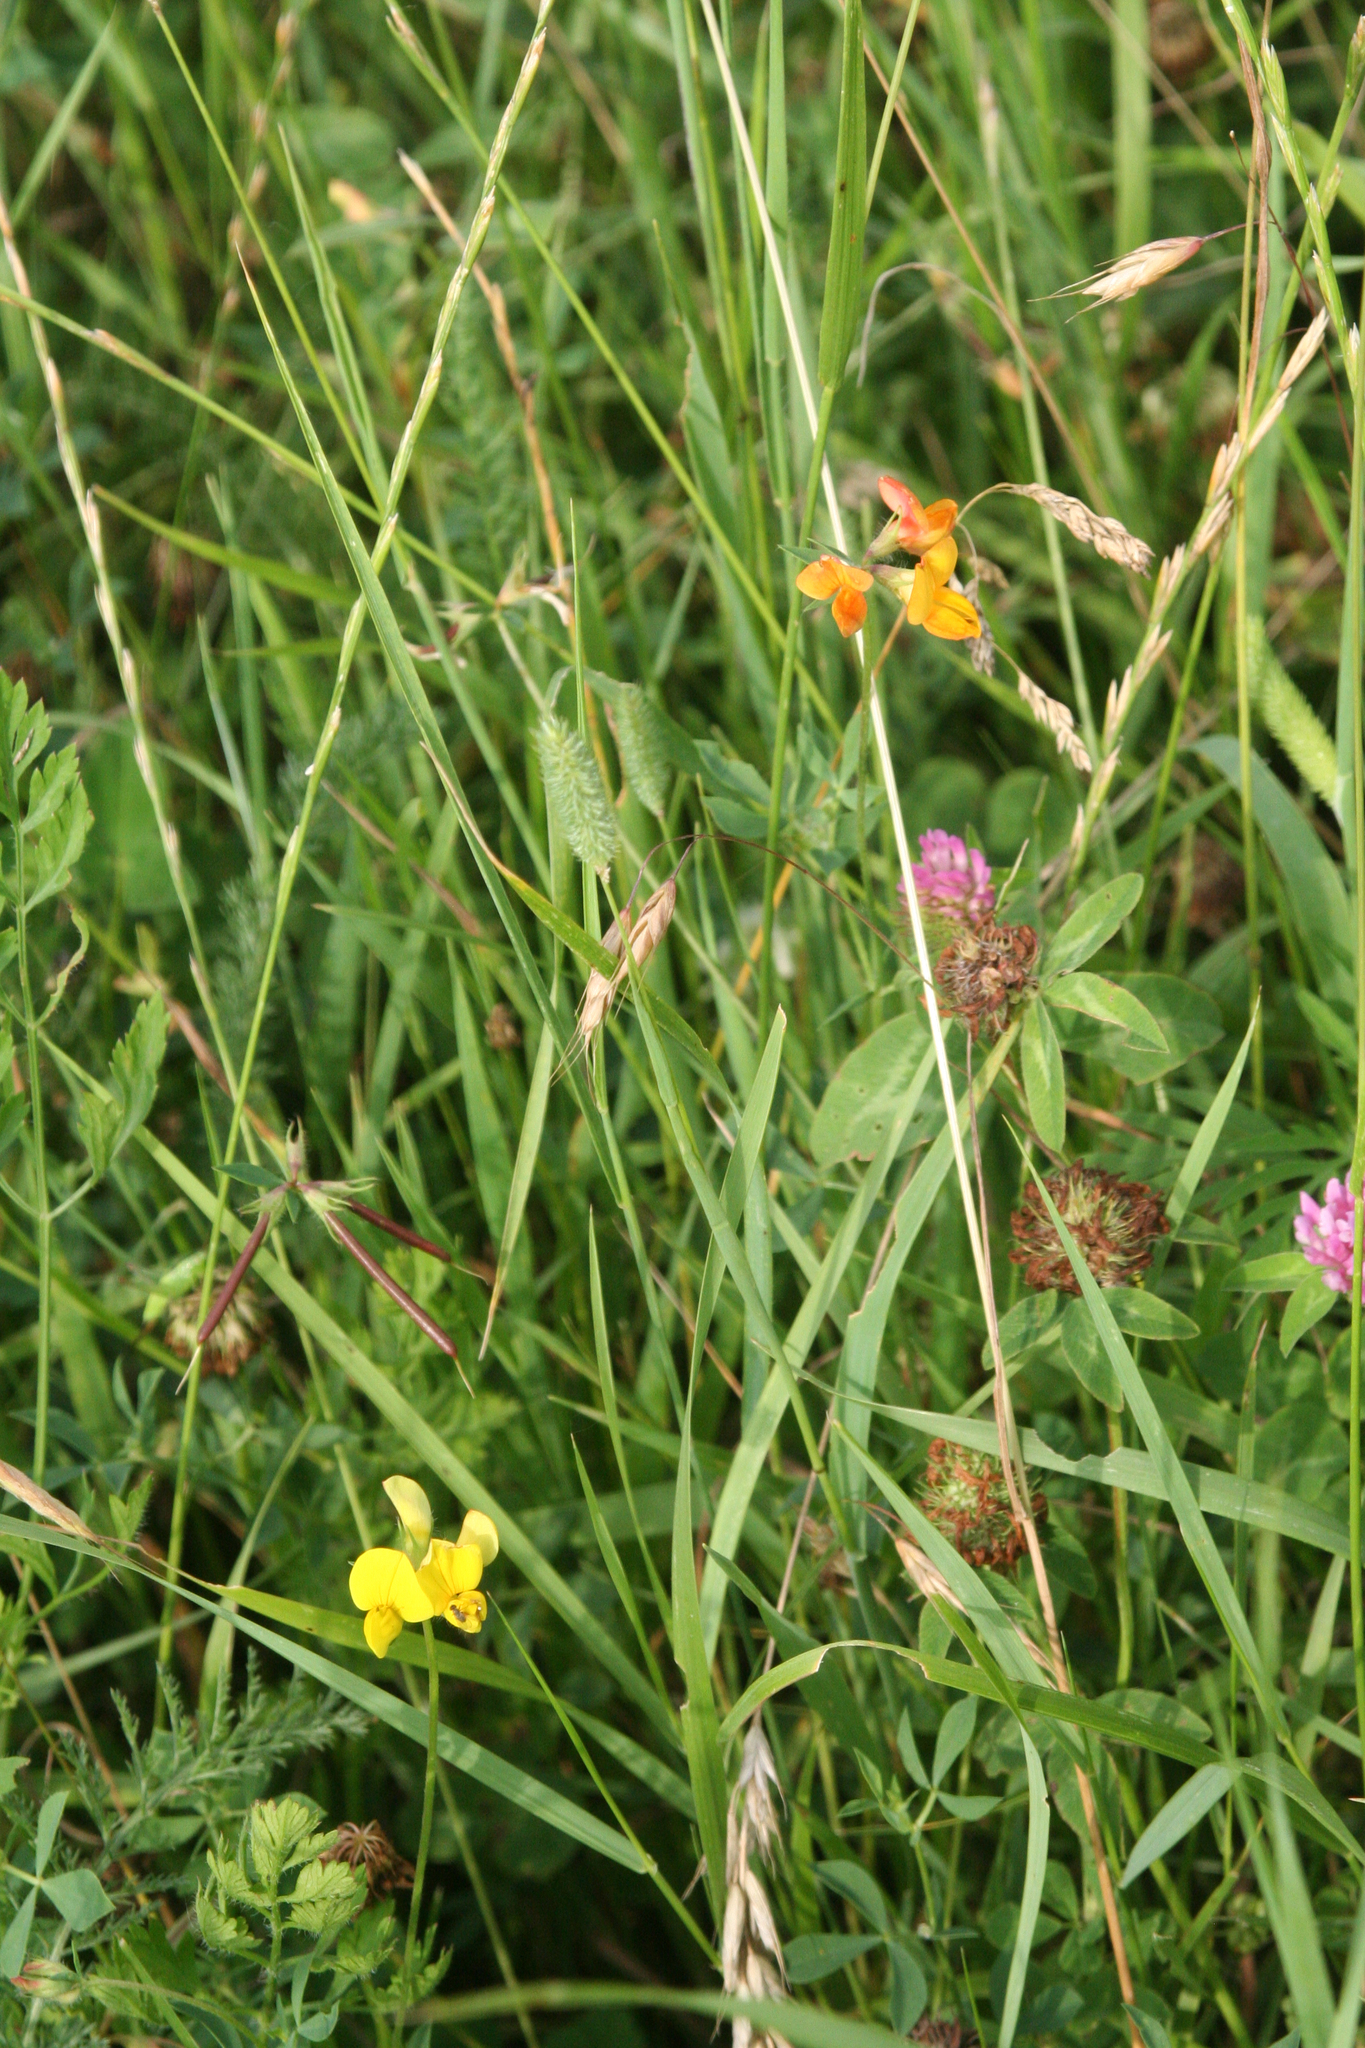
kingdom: Plantae
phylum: Tracheophyta
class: Magnoliopsida
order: Fabales
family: Fabaceae
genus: Lotus
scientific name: Lotus corniculatus
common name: Common bird's-foot-trefoil
